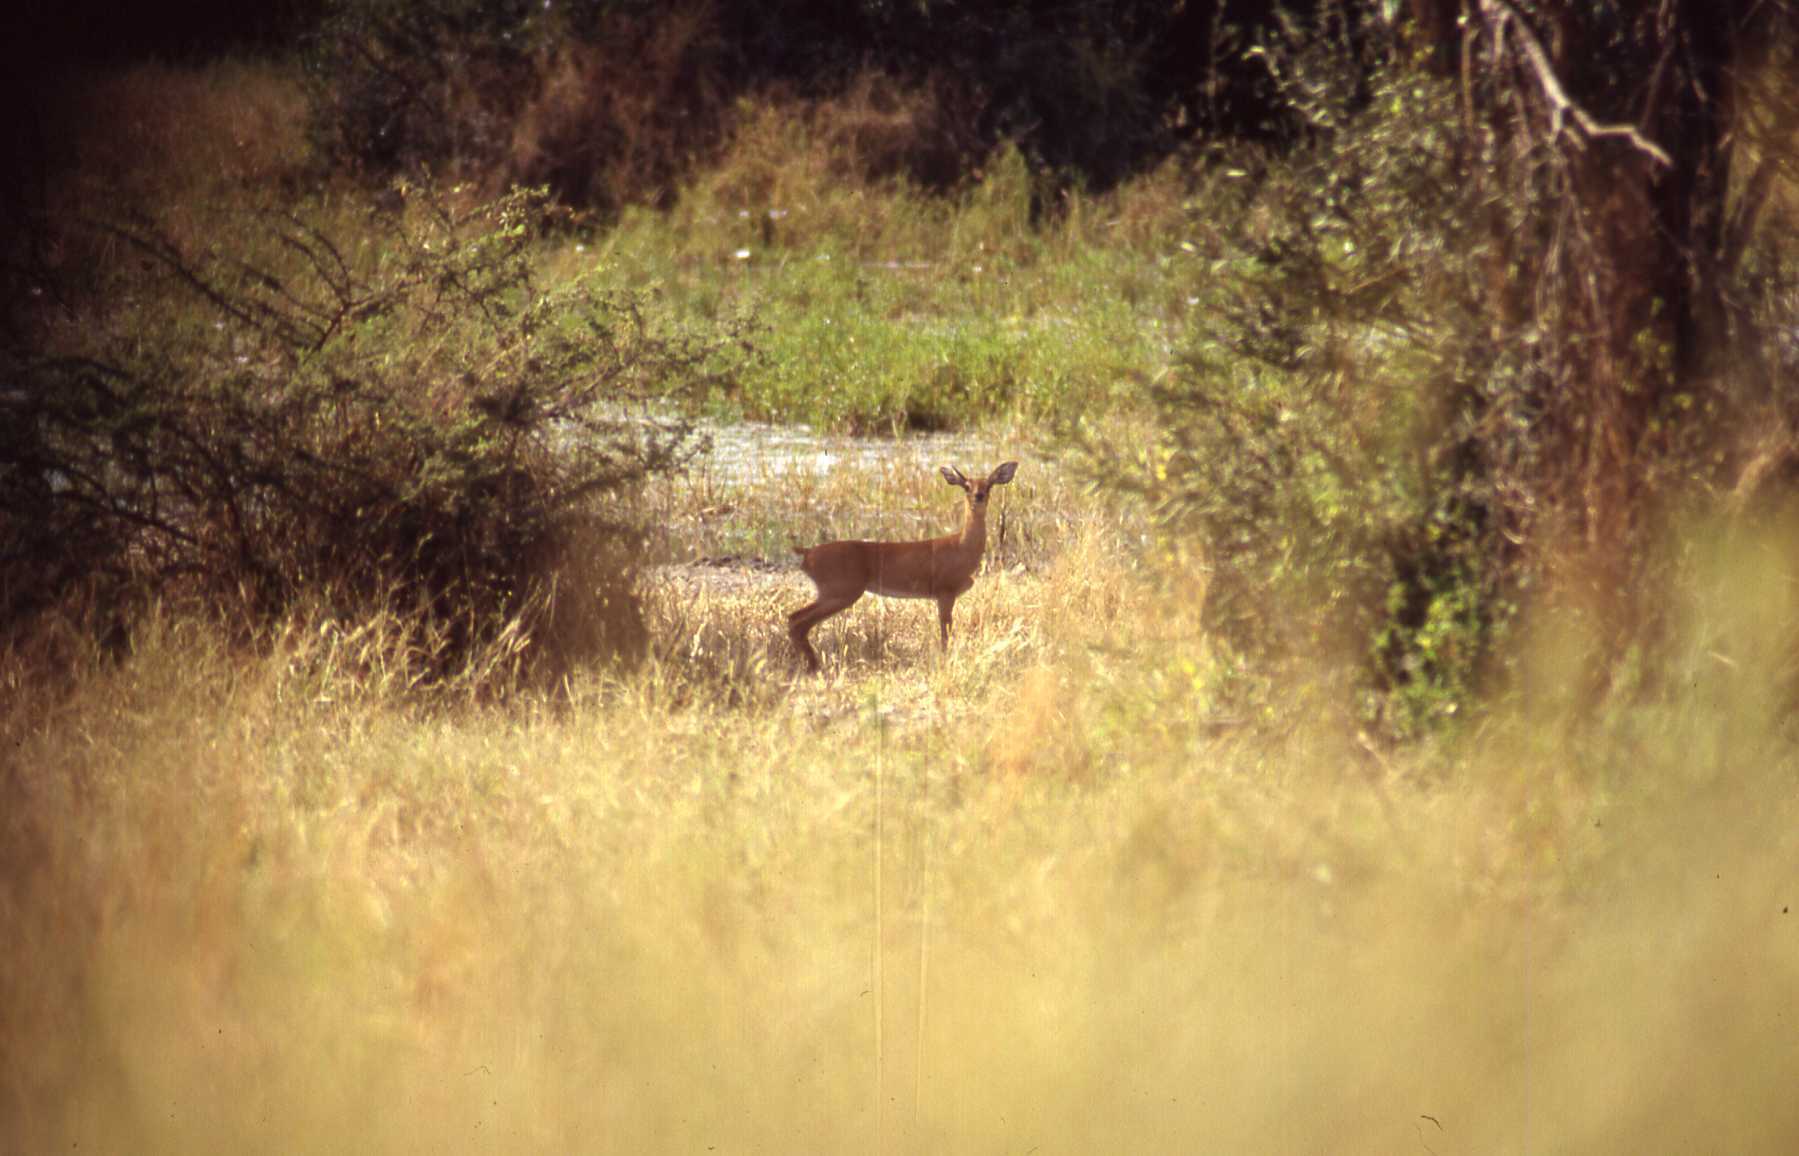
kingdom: Animalia
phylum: Chordata
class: Mammalia
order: Artiodactyla
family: Bovidae
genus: Raphicerus
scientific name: Raphicerus campestris
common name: Steenbok
